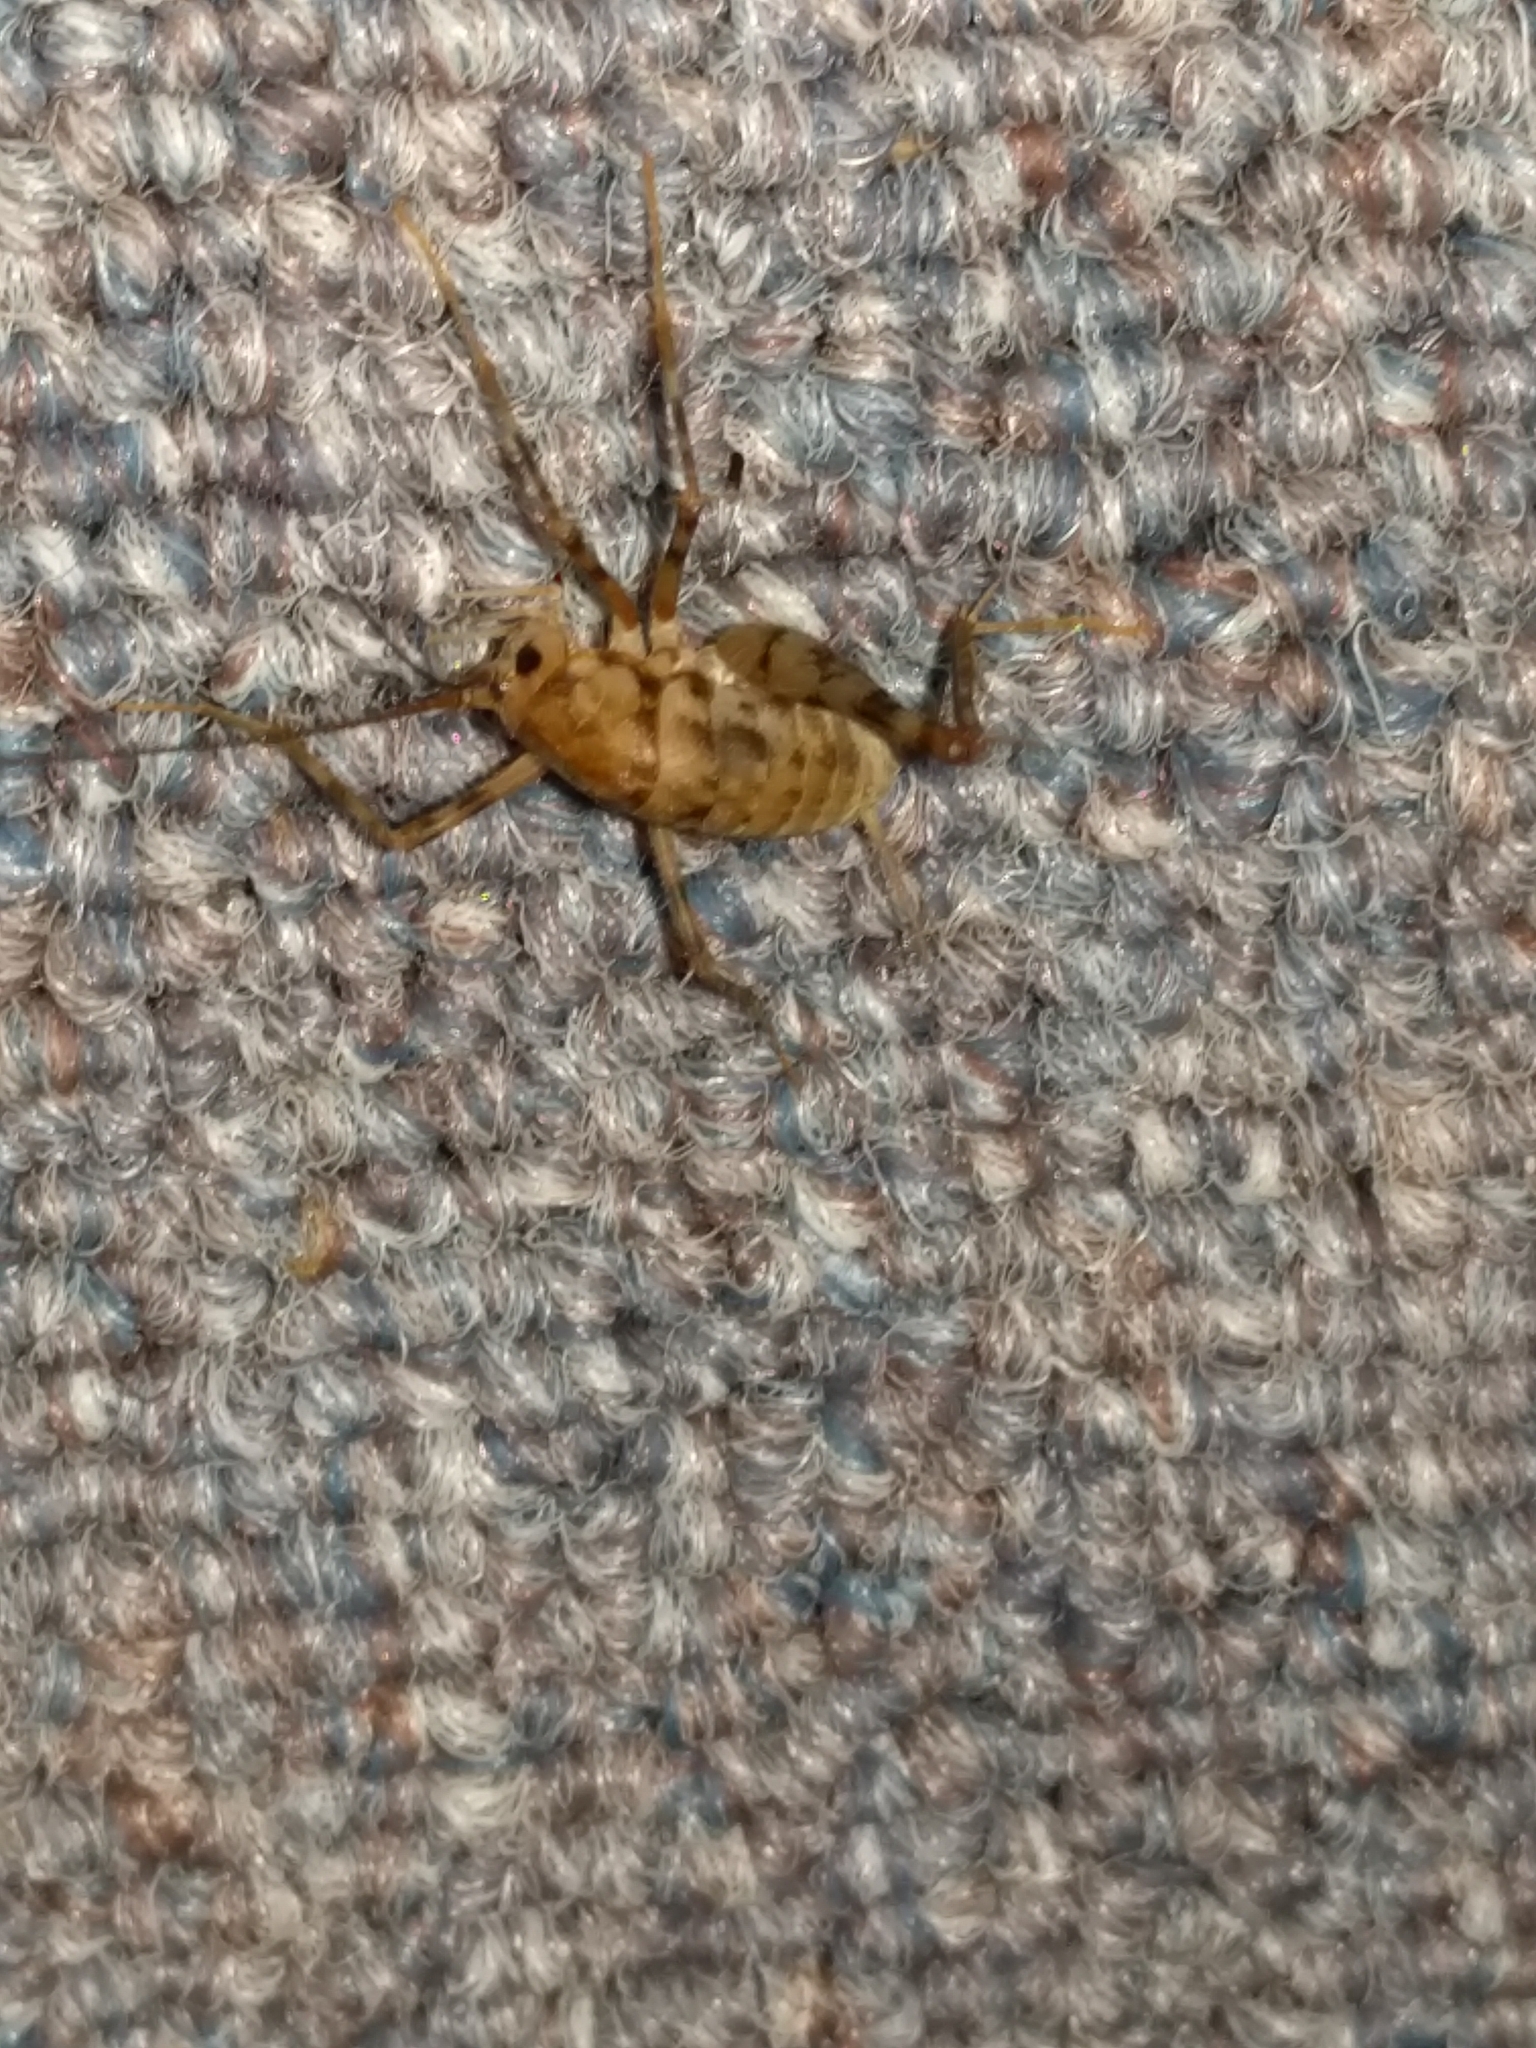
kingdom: Animalia
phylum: Arthropoda
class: Insecta
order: Orthoptera
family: Rhaphidophoridae
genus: Tachycines
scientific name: Tachycines asynamorus
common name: Greenhouse camel cricket
